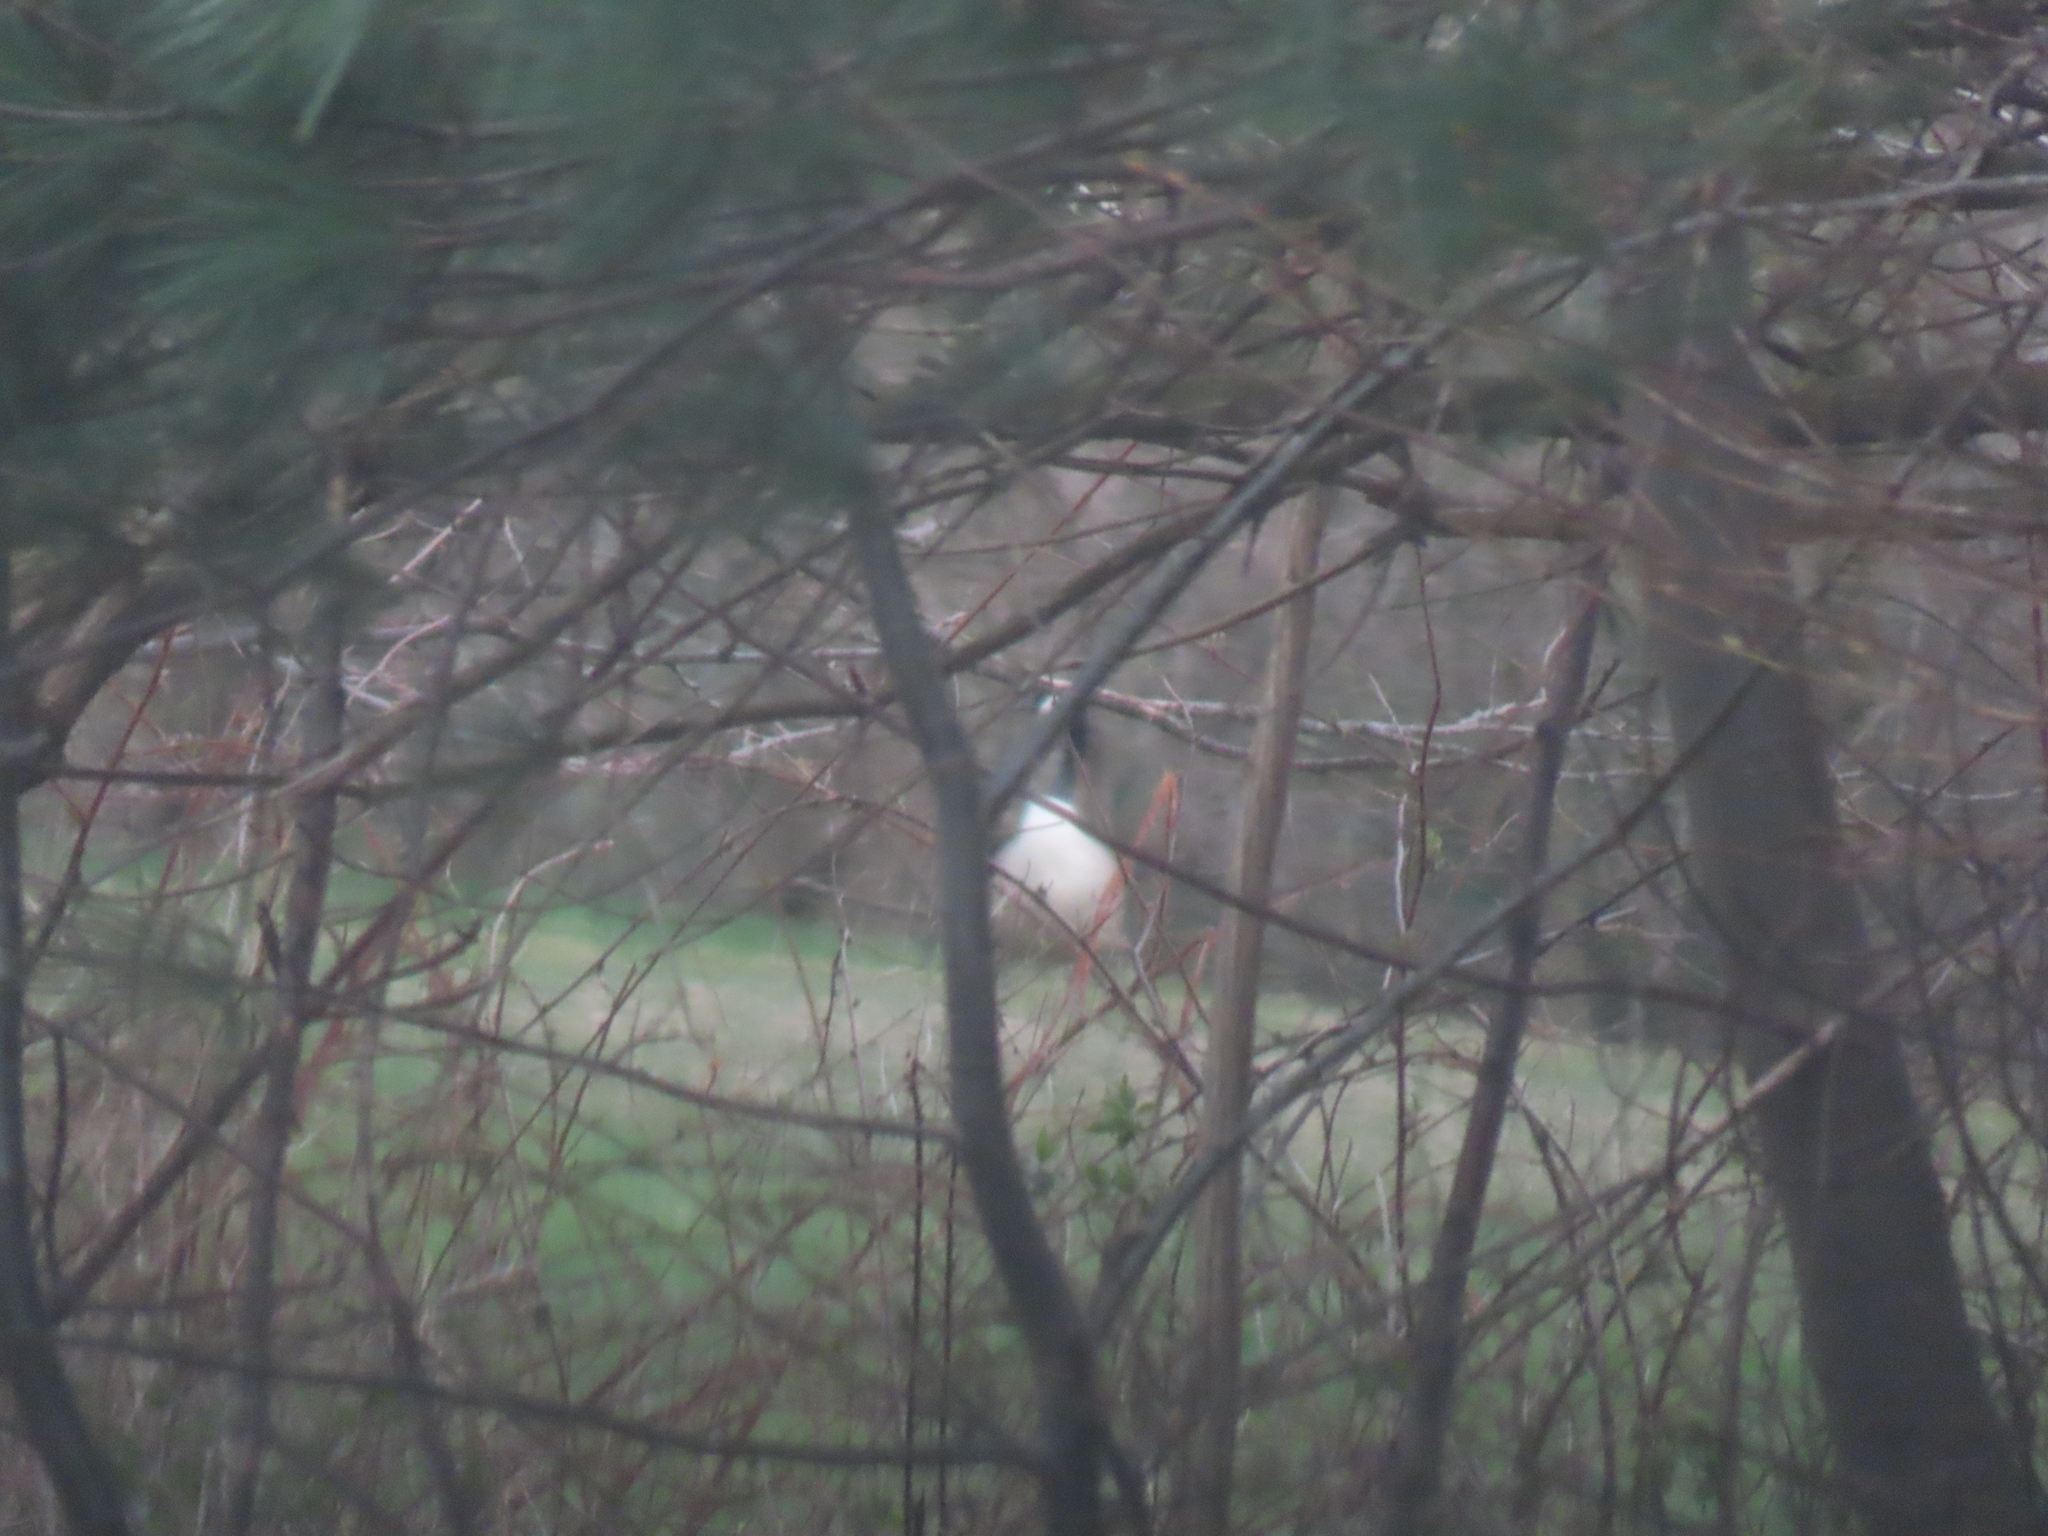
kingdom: Animalia
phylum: Chordata
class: Aves
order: Anseriformes
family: Anatidae
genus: Branta
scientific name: Branta canadensis
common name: Canada goose
